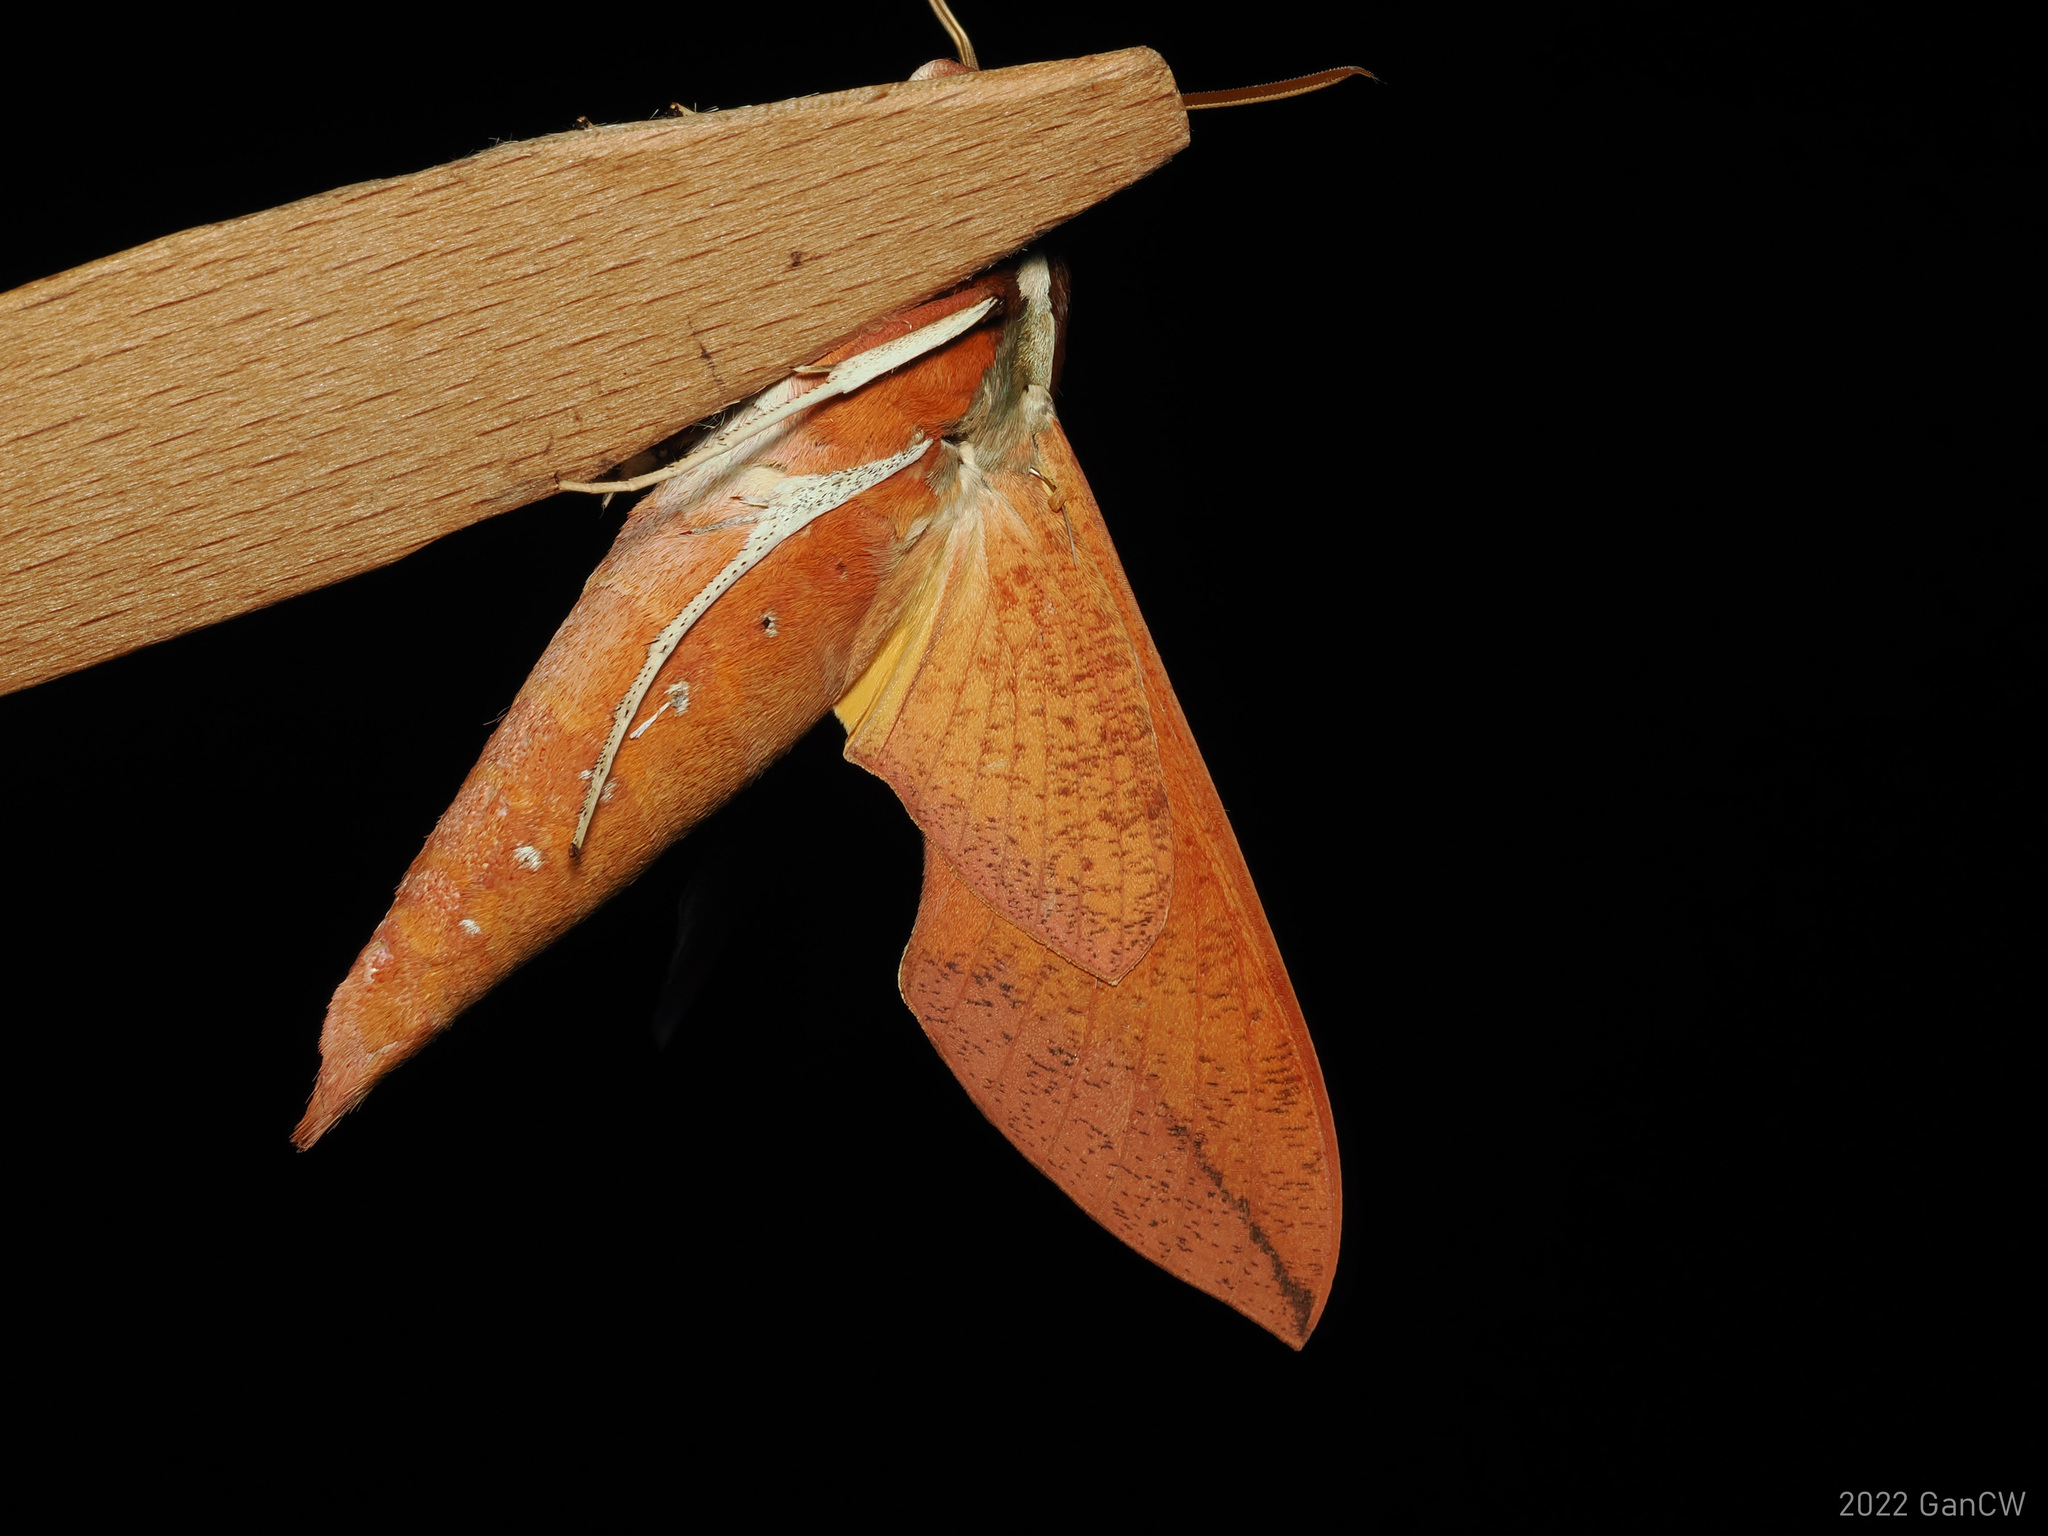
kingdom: Animalia
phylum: Arthropoda
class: Insecta
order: Lepidoptera
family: Sphingidae
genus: Gnathothlibus
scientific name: Gnathothlibus erotus
